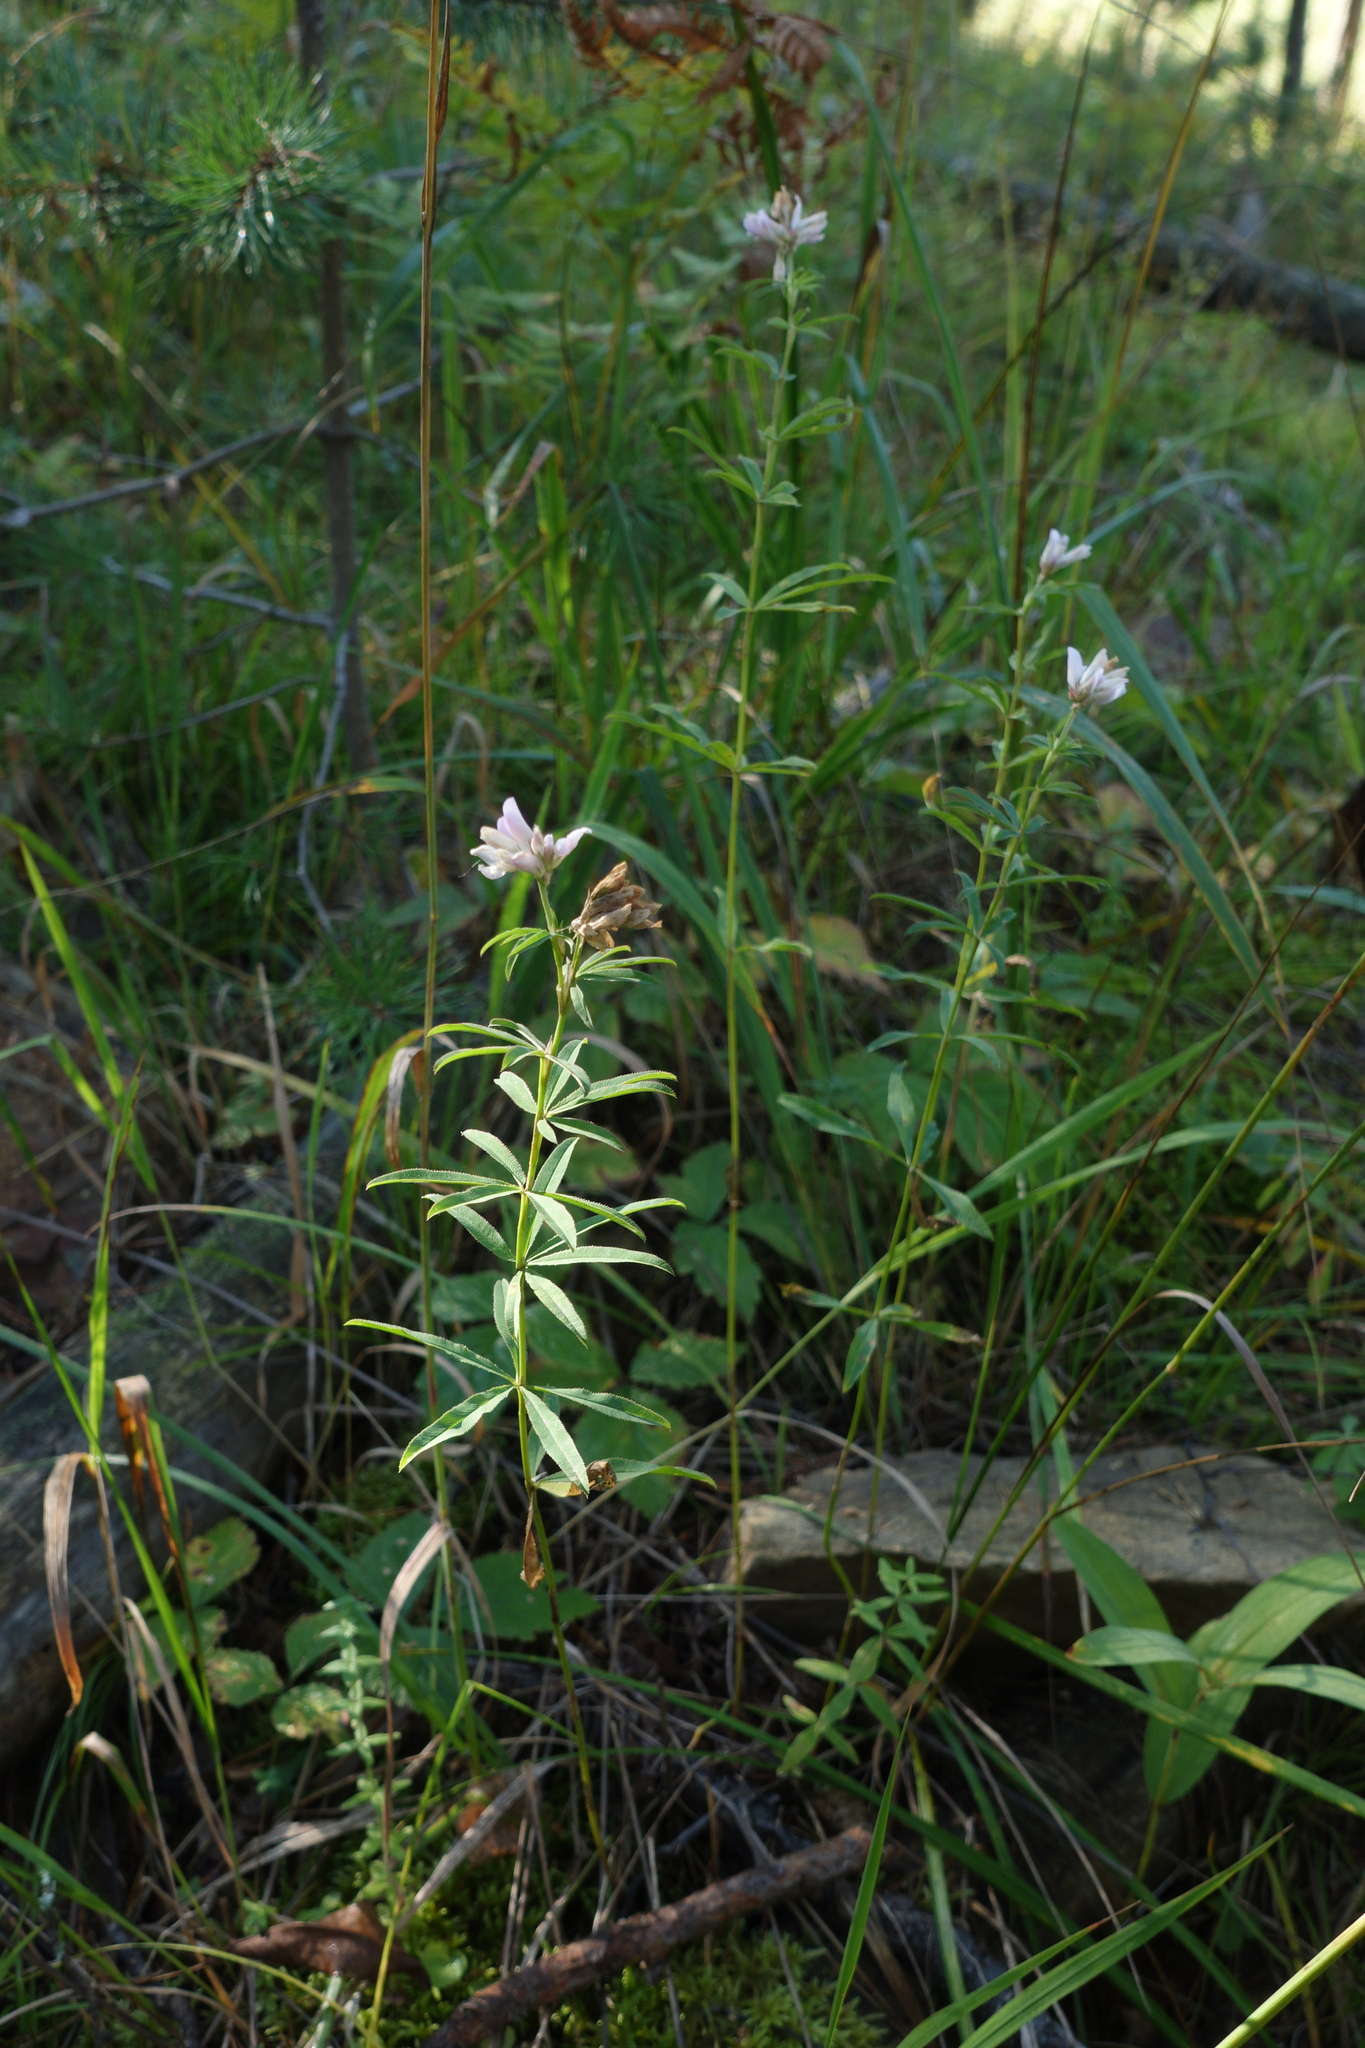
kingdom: Plantae
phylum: Tracheophyta
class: Magnoliopsida
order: Fabales
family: Fabaceae
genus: Trifolium
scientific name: Trifolium lupinaster
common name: Lupine clover
